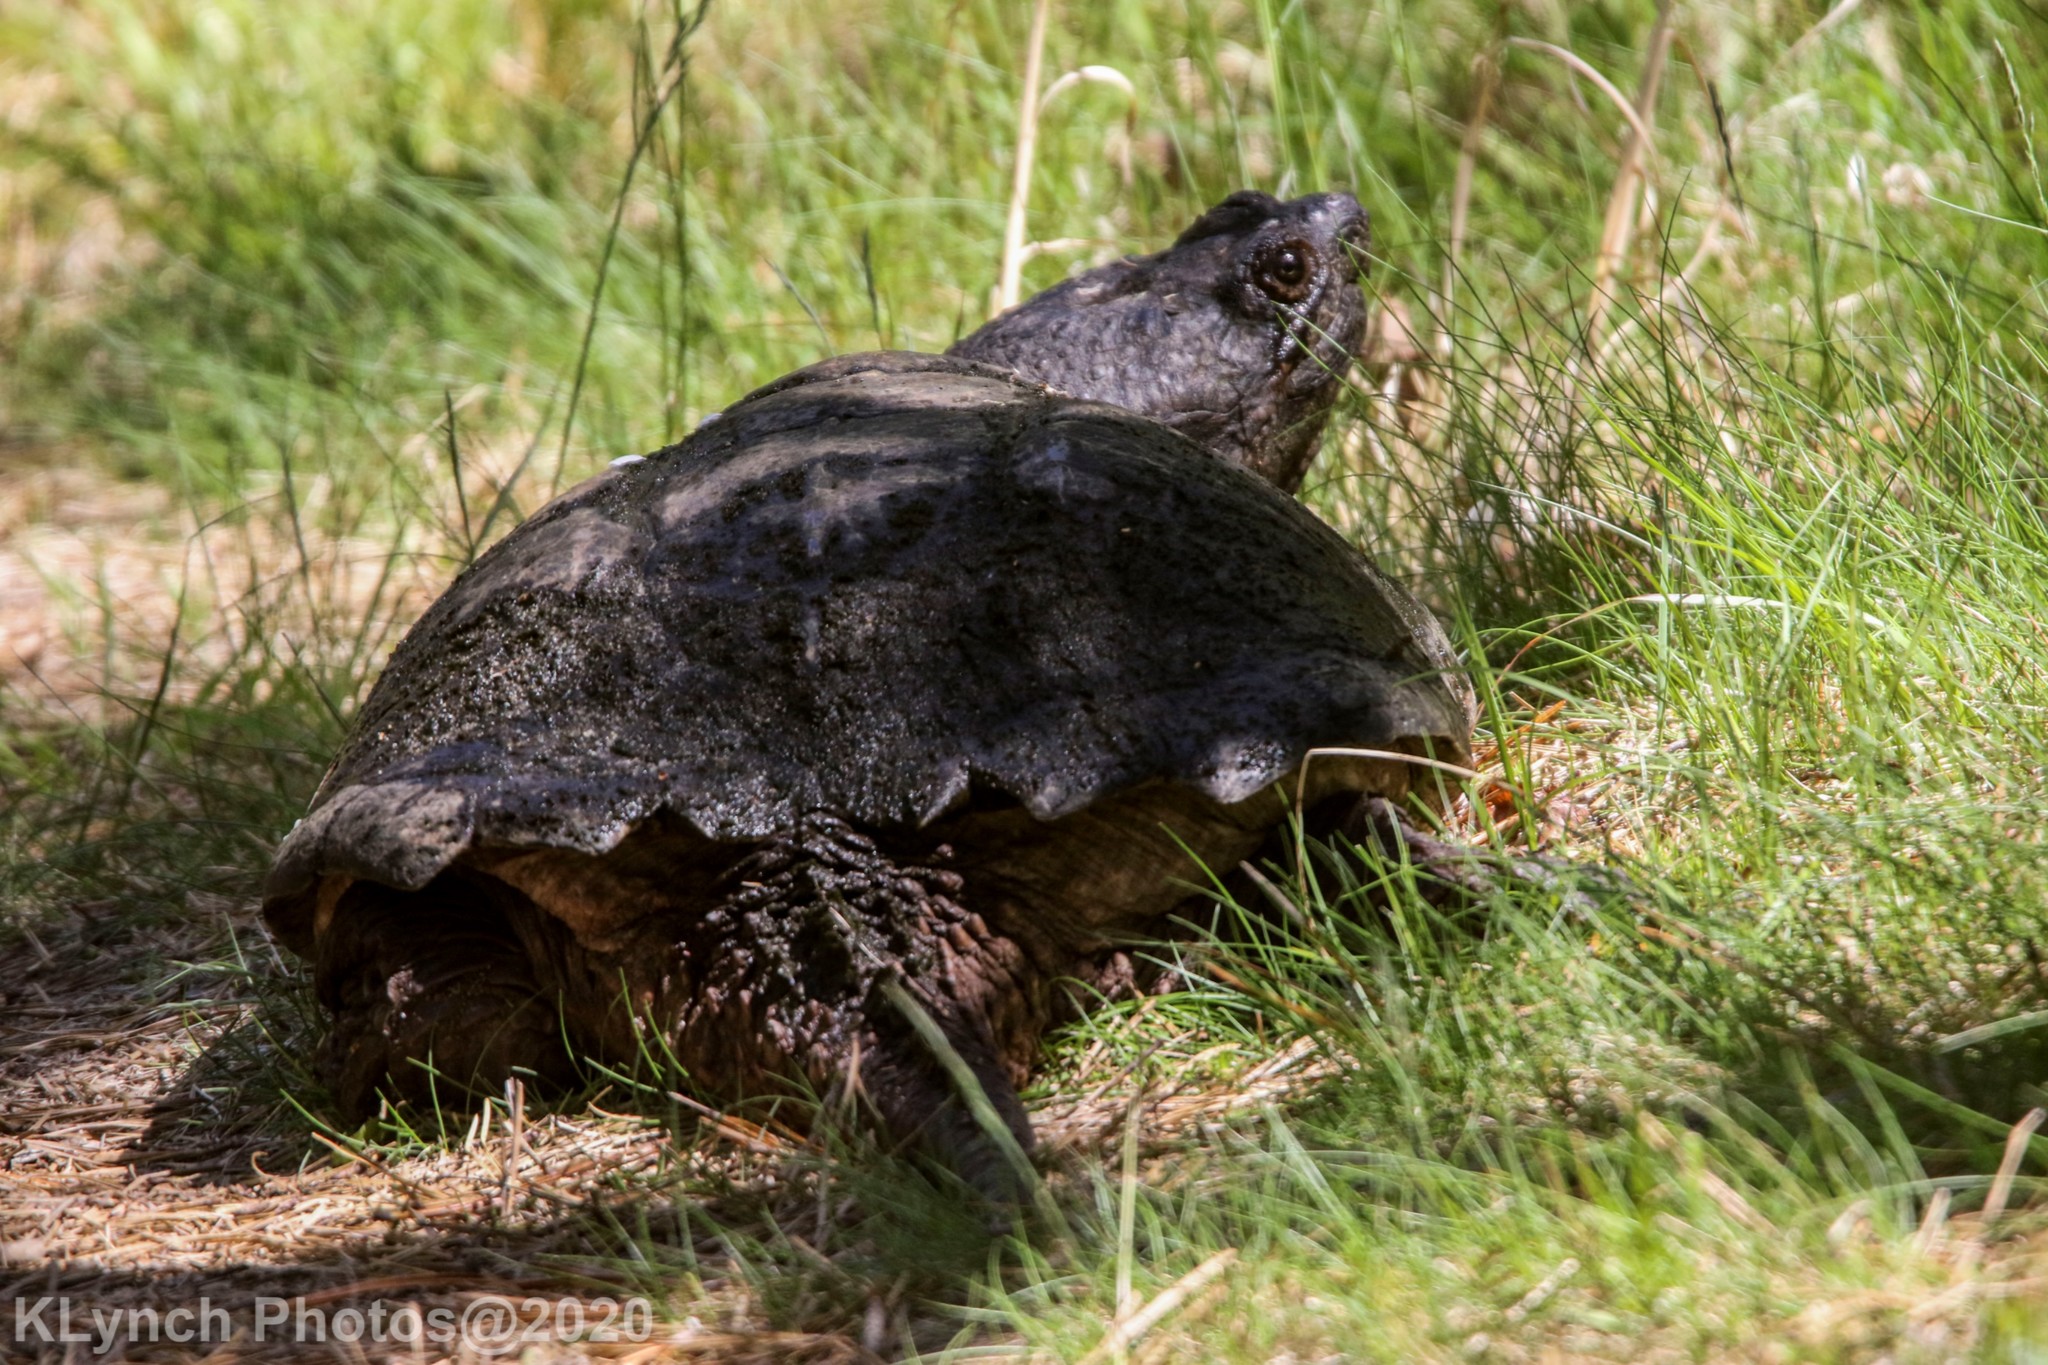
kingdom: Animalia
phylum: Chordata
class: Testudines
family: Chelydridae
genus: Chelydra
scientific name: Chelydra serpentina
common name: Common snapping turtle
